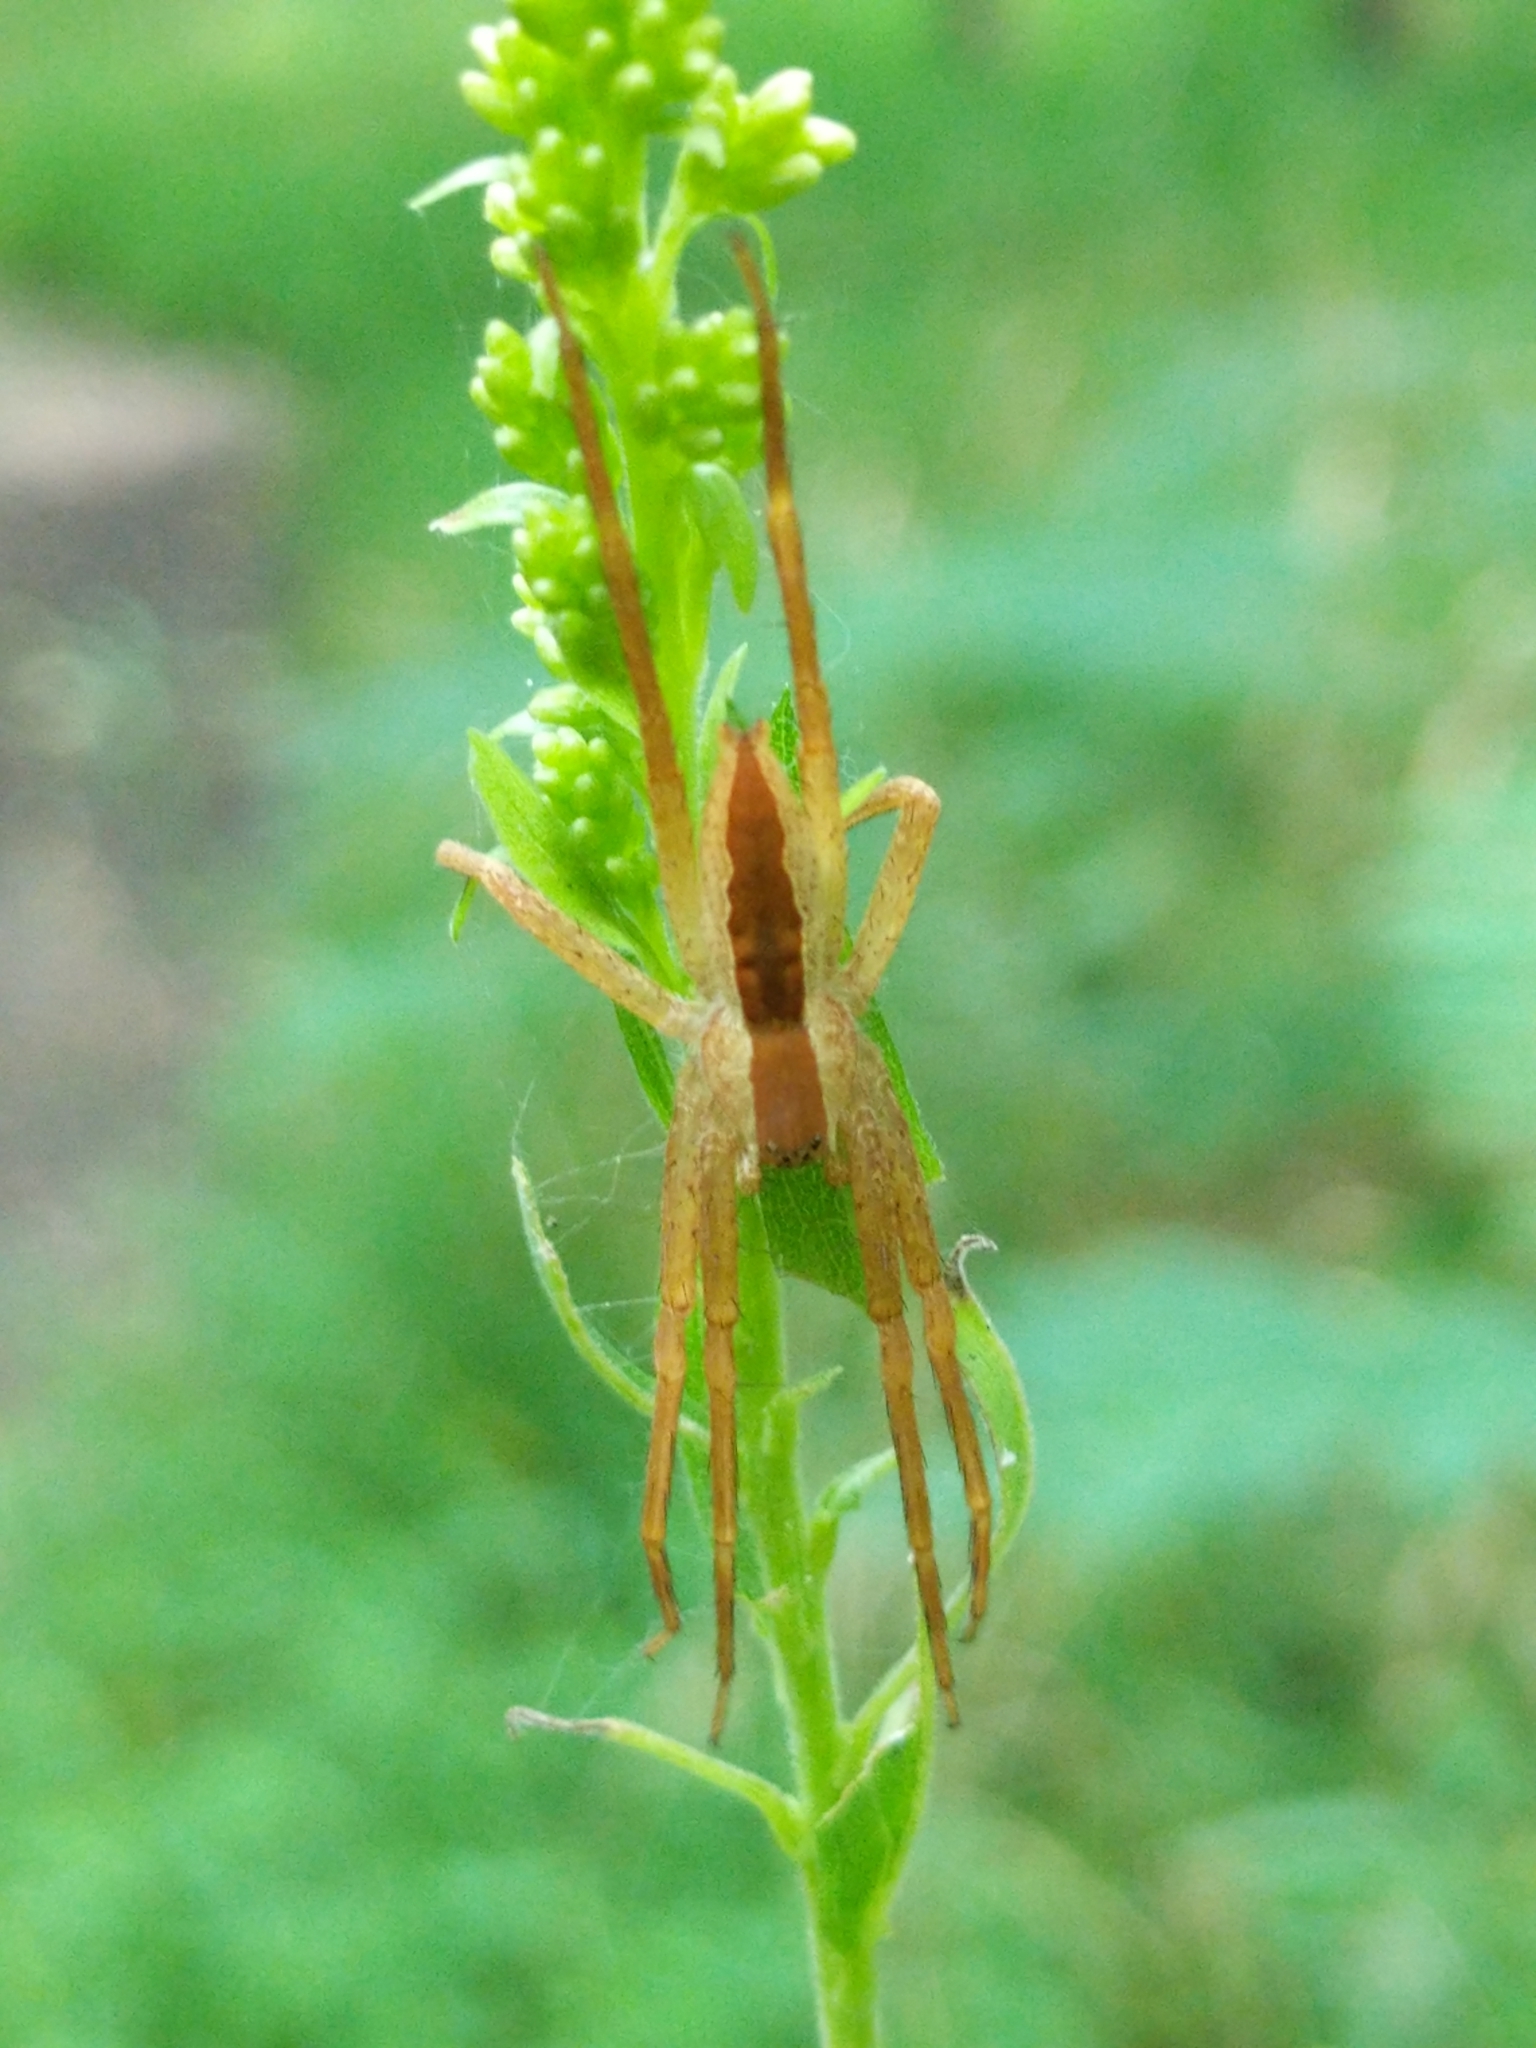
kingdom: Animalia
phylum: Arthropoda
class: Arachnida
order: Araneae
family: Pisauridae
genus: Pisaurina
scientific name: Pisaurina mira
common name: American nursery web spider
